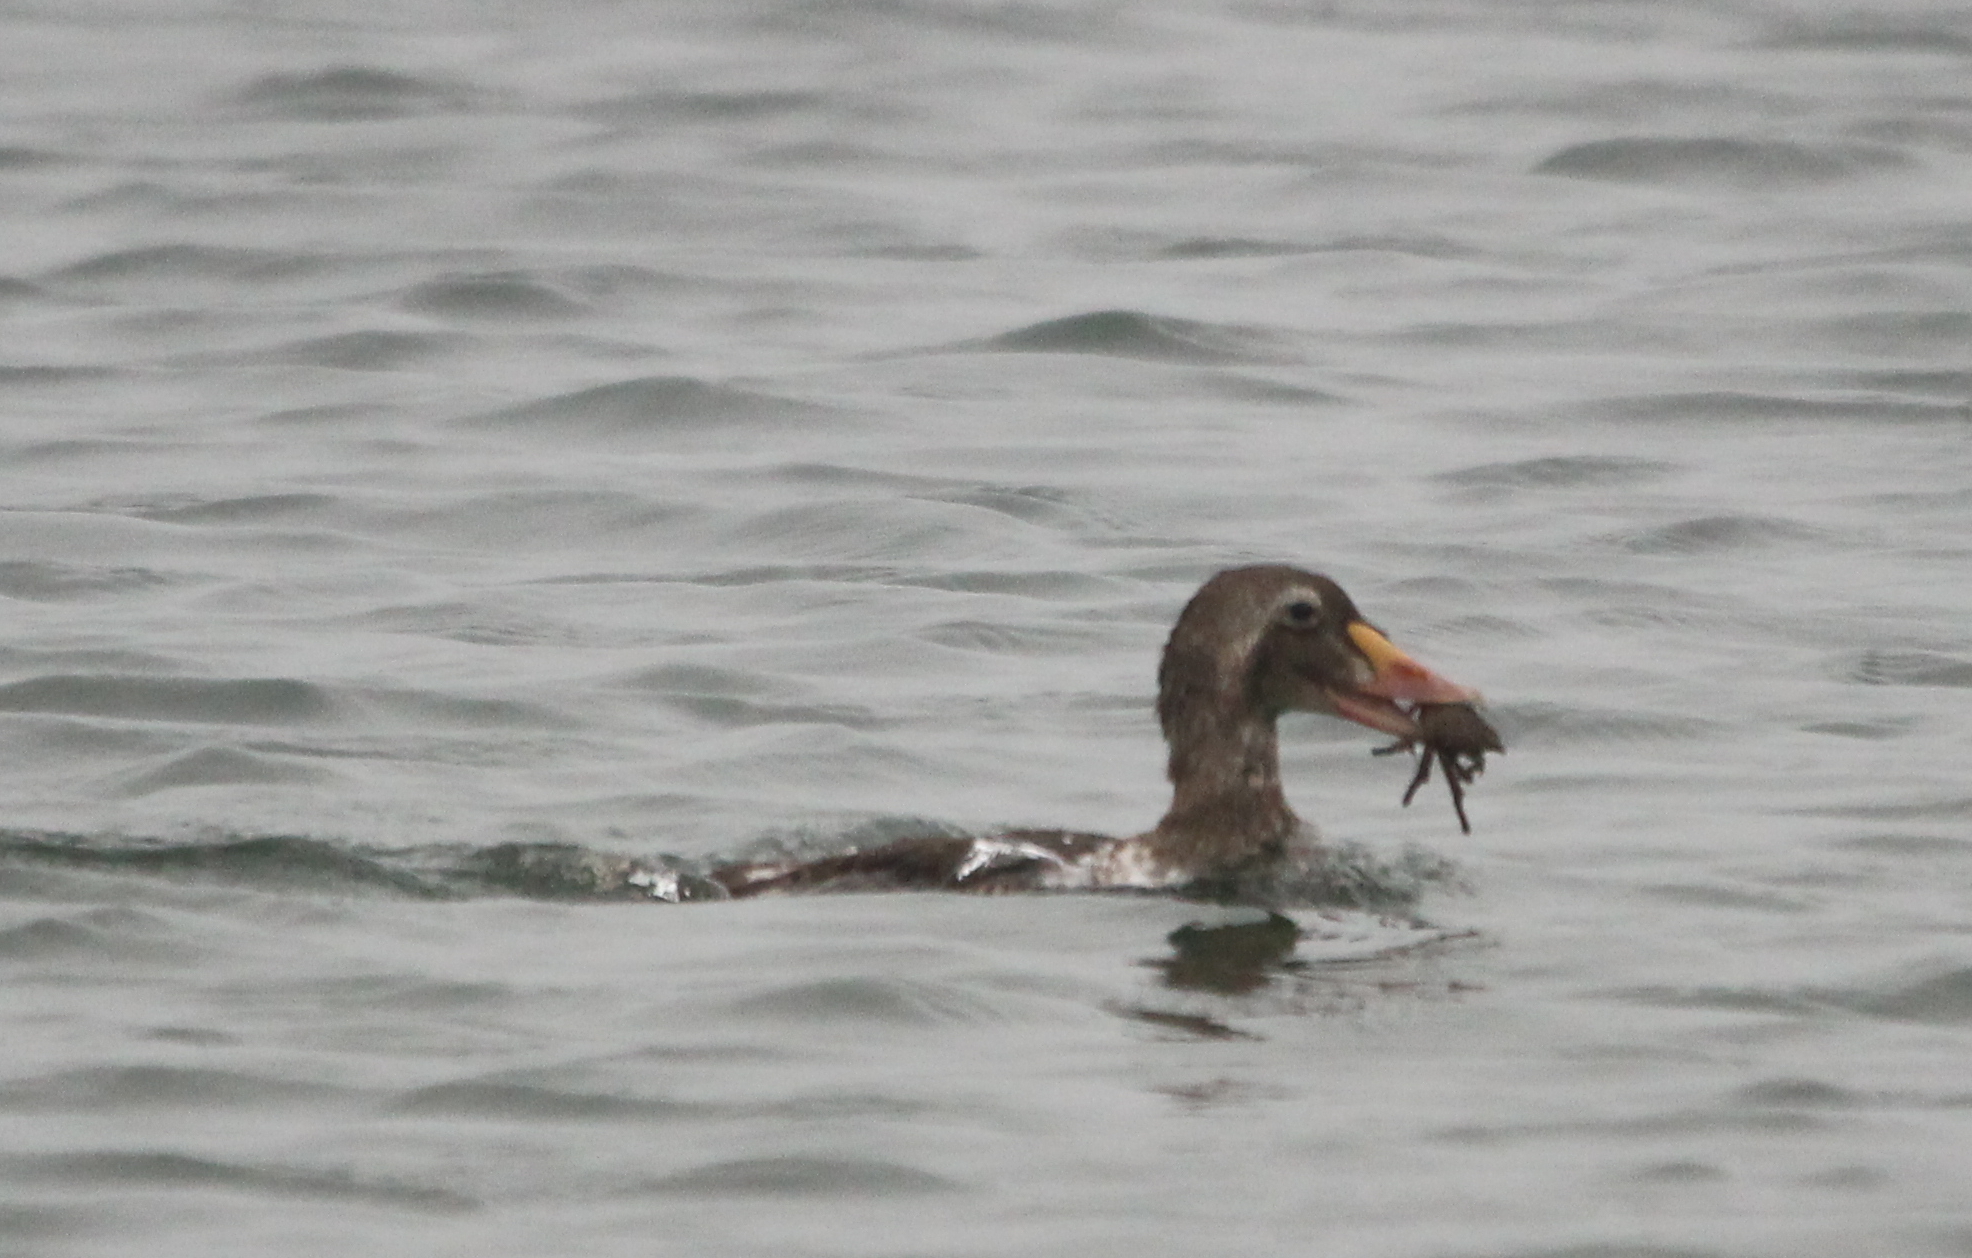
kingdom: Animalia
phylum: Chordata
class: Aves
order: Anseriformes
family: Anatidae
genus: Somateria
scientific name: Somateria spectabilis
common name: King eider
